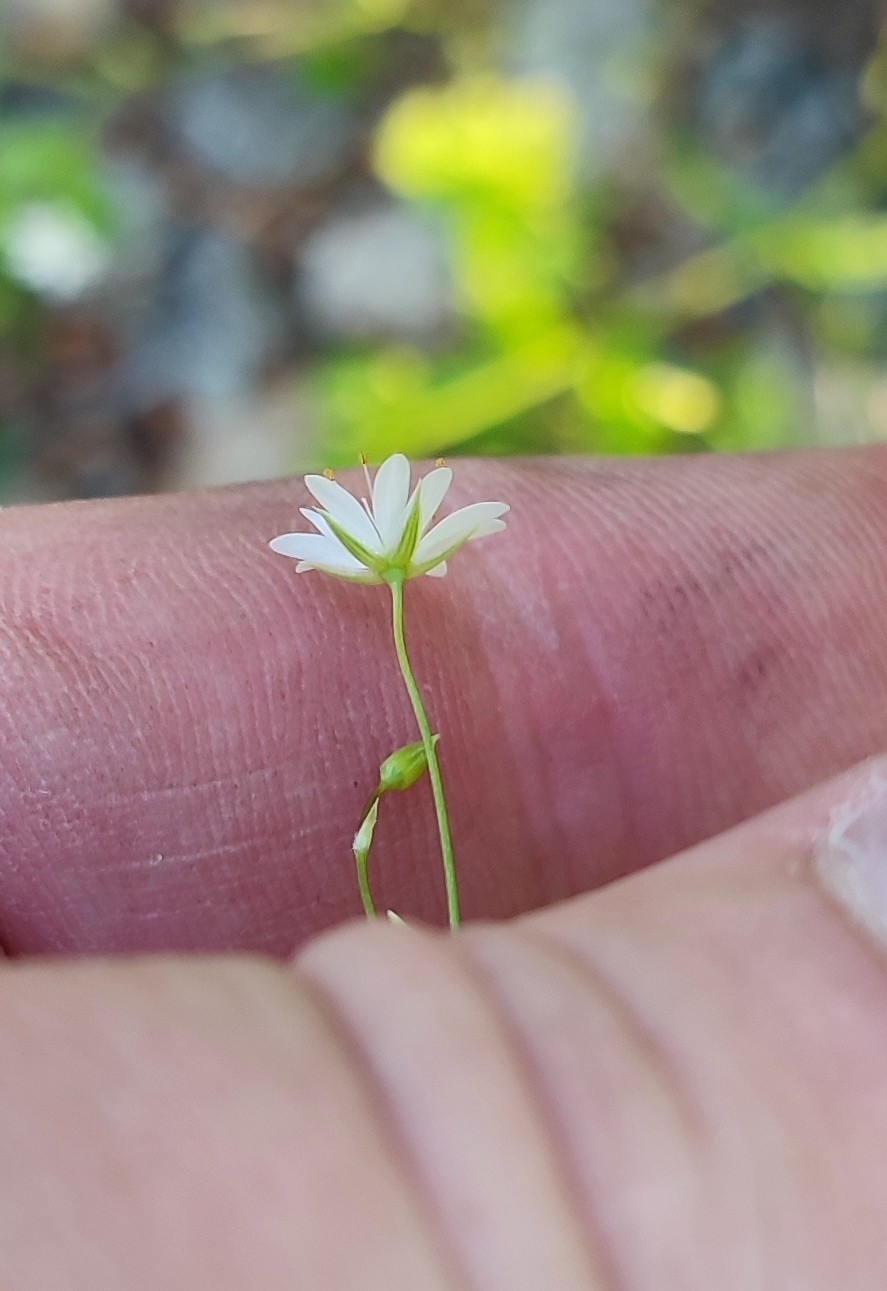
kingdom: Plantae
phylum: Tracheophyta
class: Magnoliopsida
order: Caryophyllales
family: Caryophyllaceae
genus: Stellaria
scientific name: Stellaria graminea
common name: Grass-like starwort
